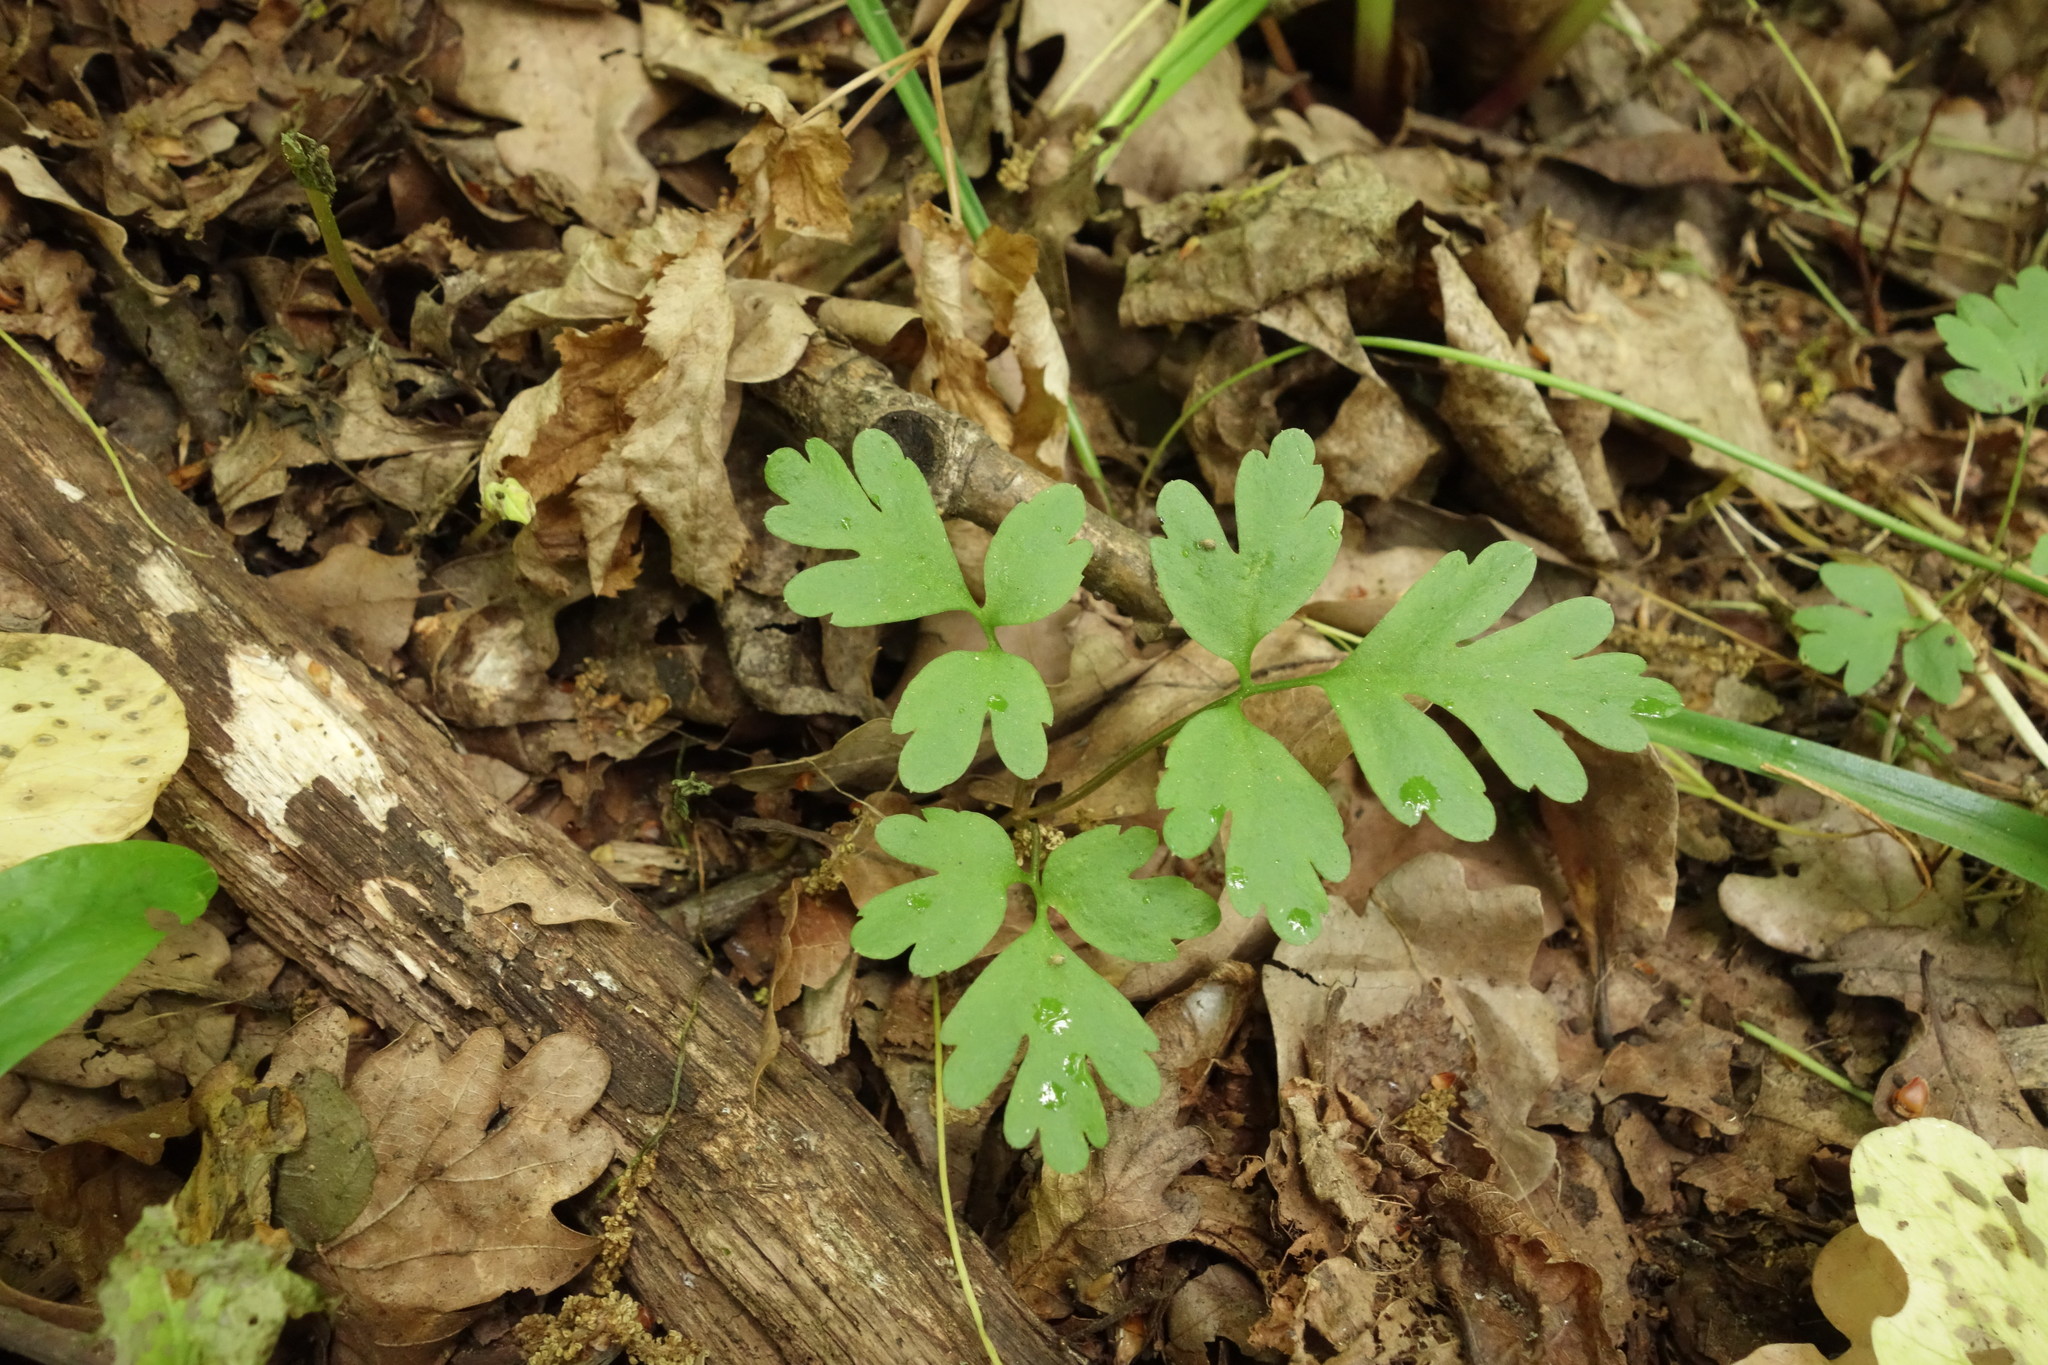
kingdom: Plantae
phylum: Tracheophyta
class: Magnoliopsida
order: Dipsacales
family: Viburnaceae
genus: Adoxa
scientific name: Adoxa moschatellina
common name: Moschatel
